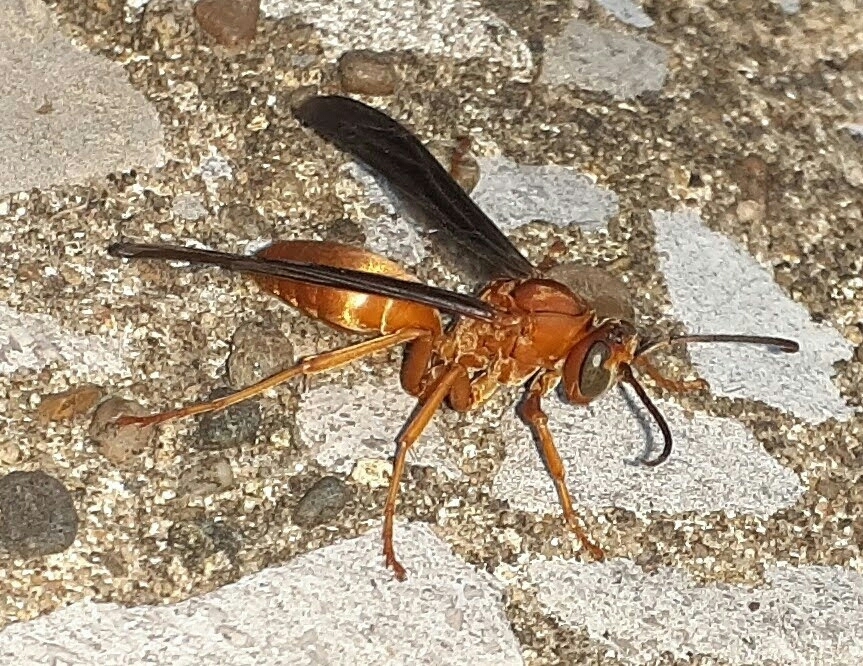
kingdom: Animalia
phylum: Arthropoda
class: Insecta
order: Hymenoptera
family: Vespidae
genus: Fuscopolistes
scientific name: Fuscopolistes
